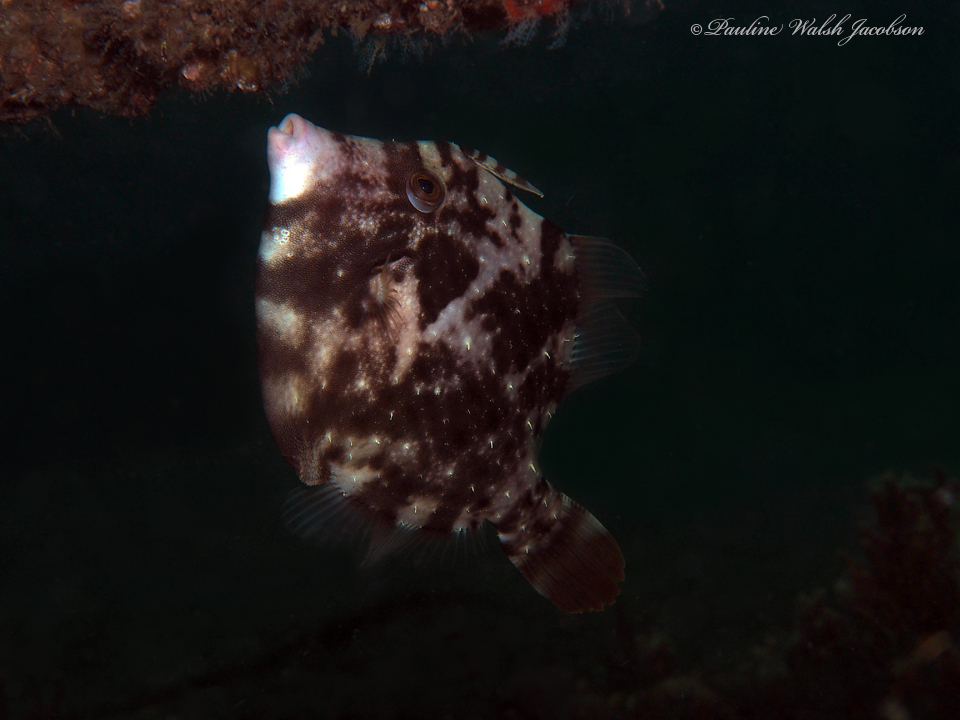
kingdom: Animalia
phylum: Chordata
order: Tetraodontiformes
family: Monacanthidae
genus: Stephanolepis
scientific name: Stephanolepis hispidus
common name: Planehead filefish
